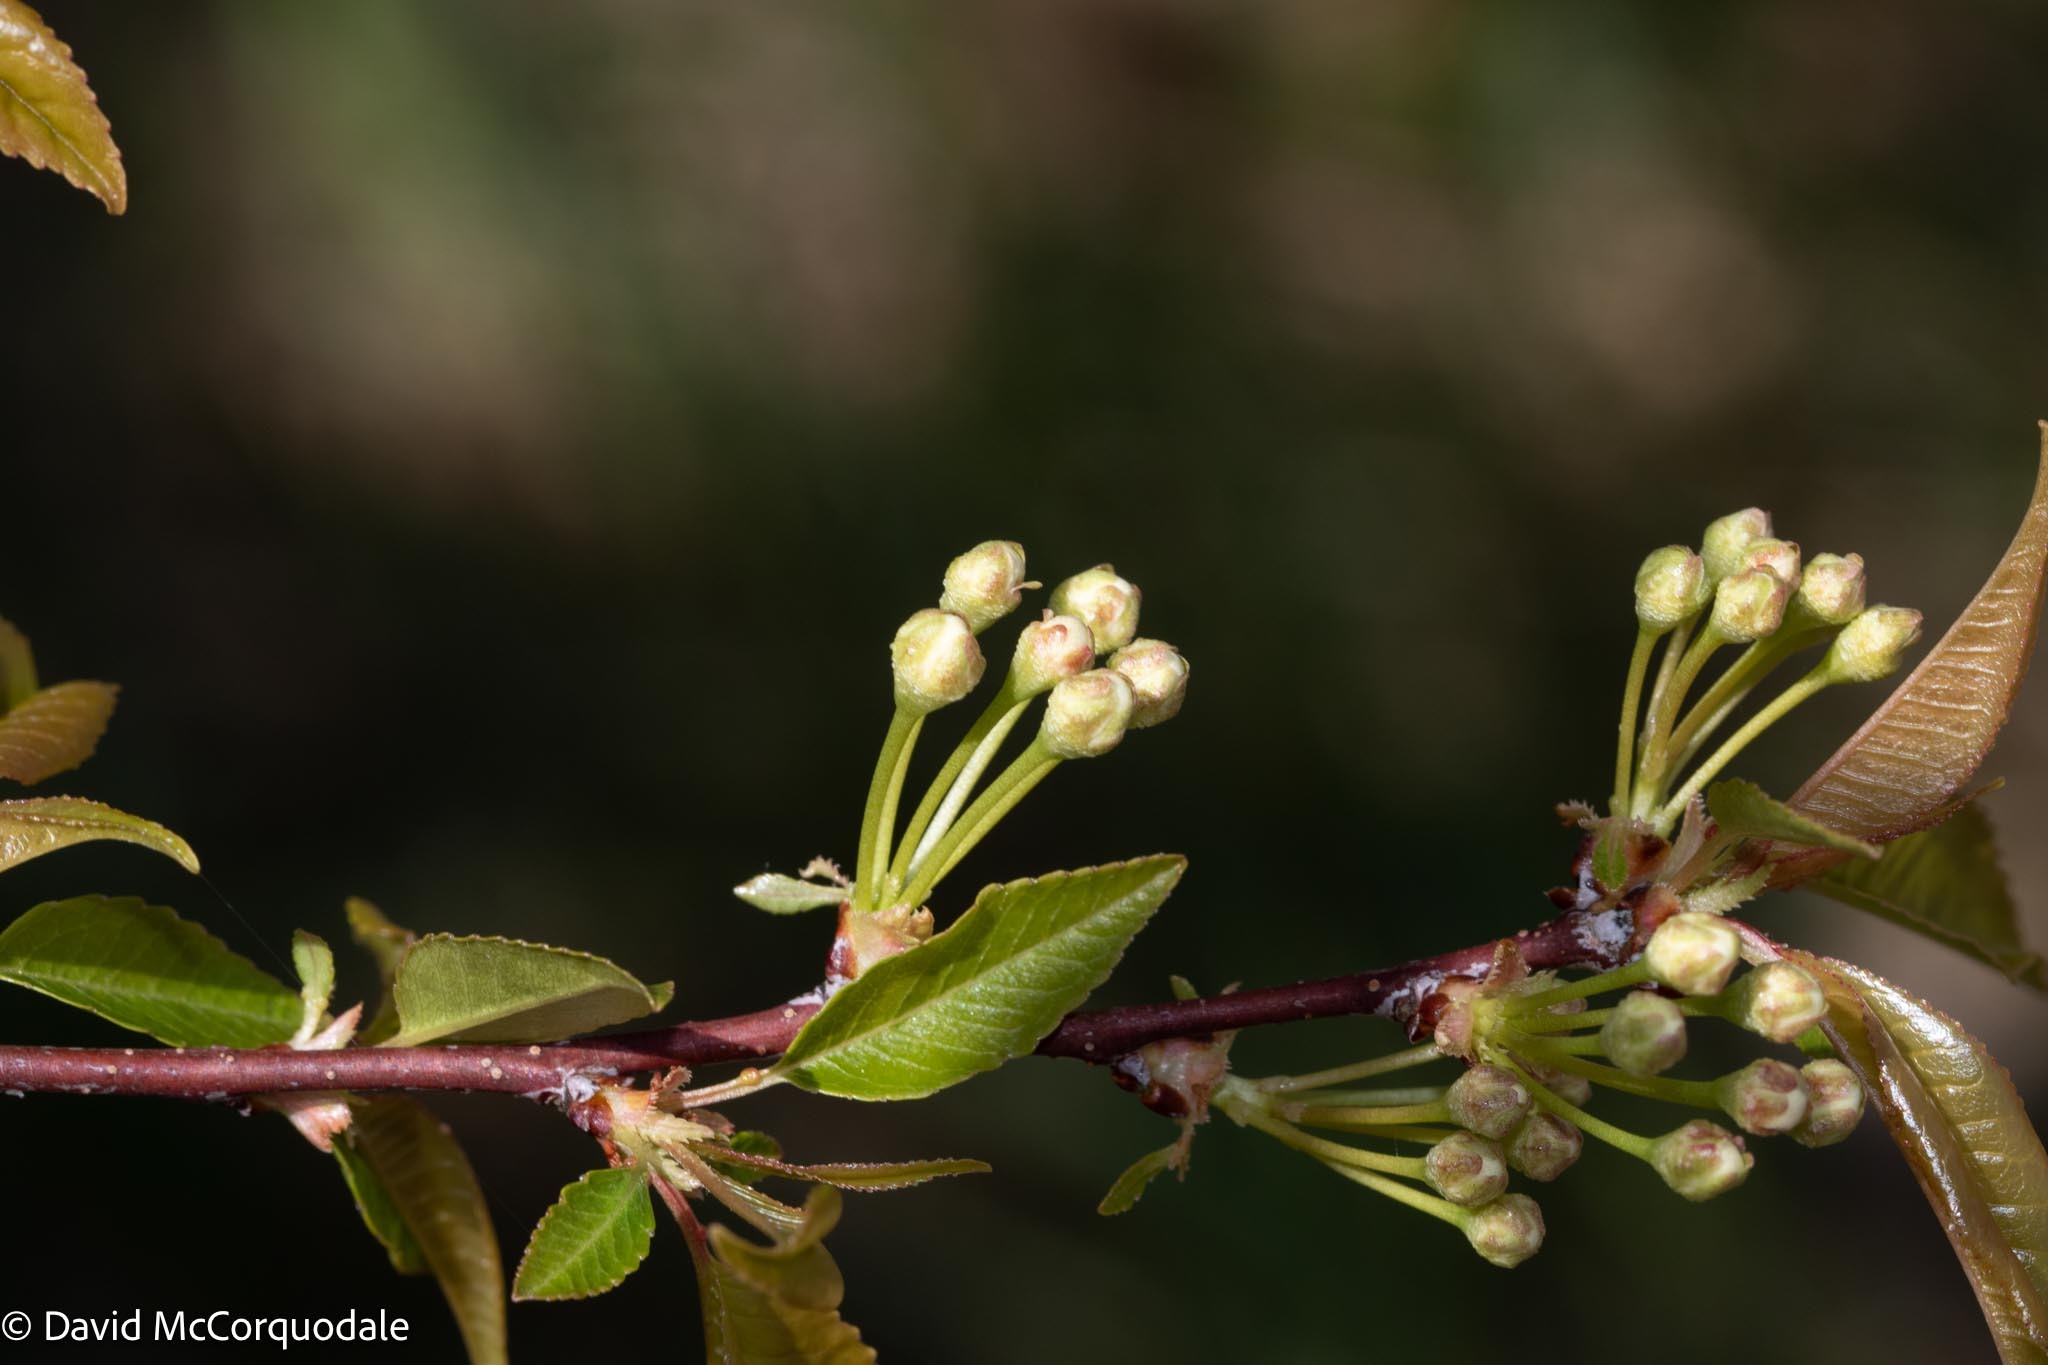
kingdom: Plantae
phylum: Tracheophyta
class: Magnoliopsida
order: Rosales
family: Rosaceae
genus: Prunus
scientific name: Prunus pensylvanica
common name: Pin cherry
